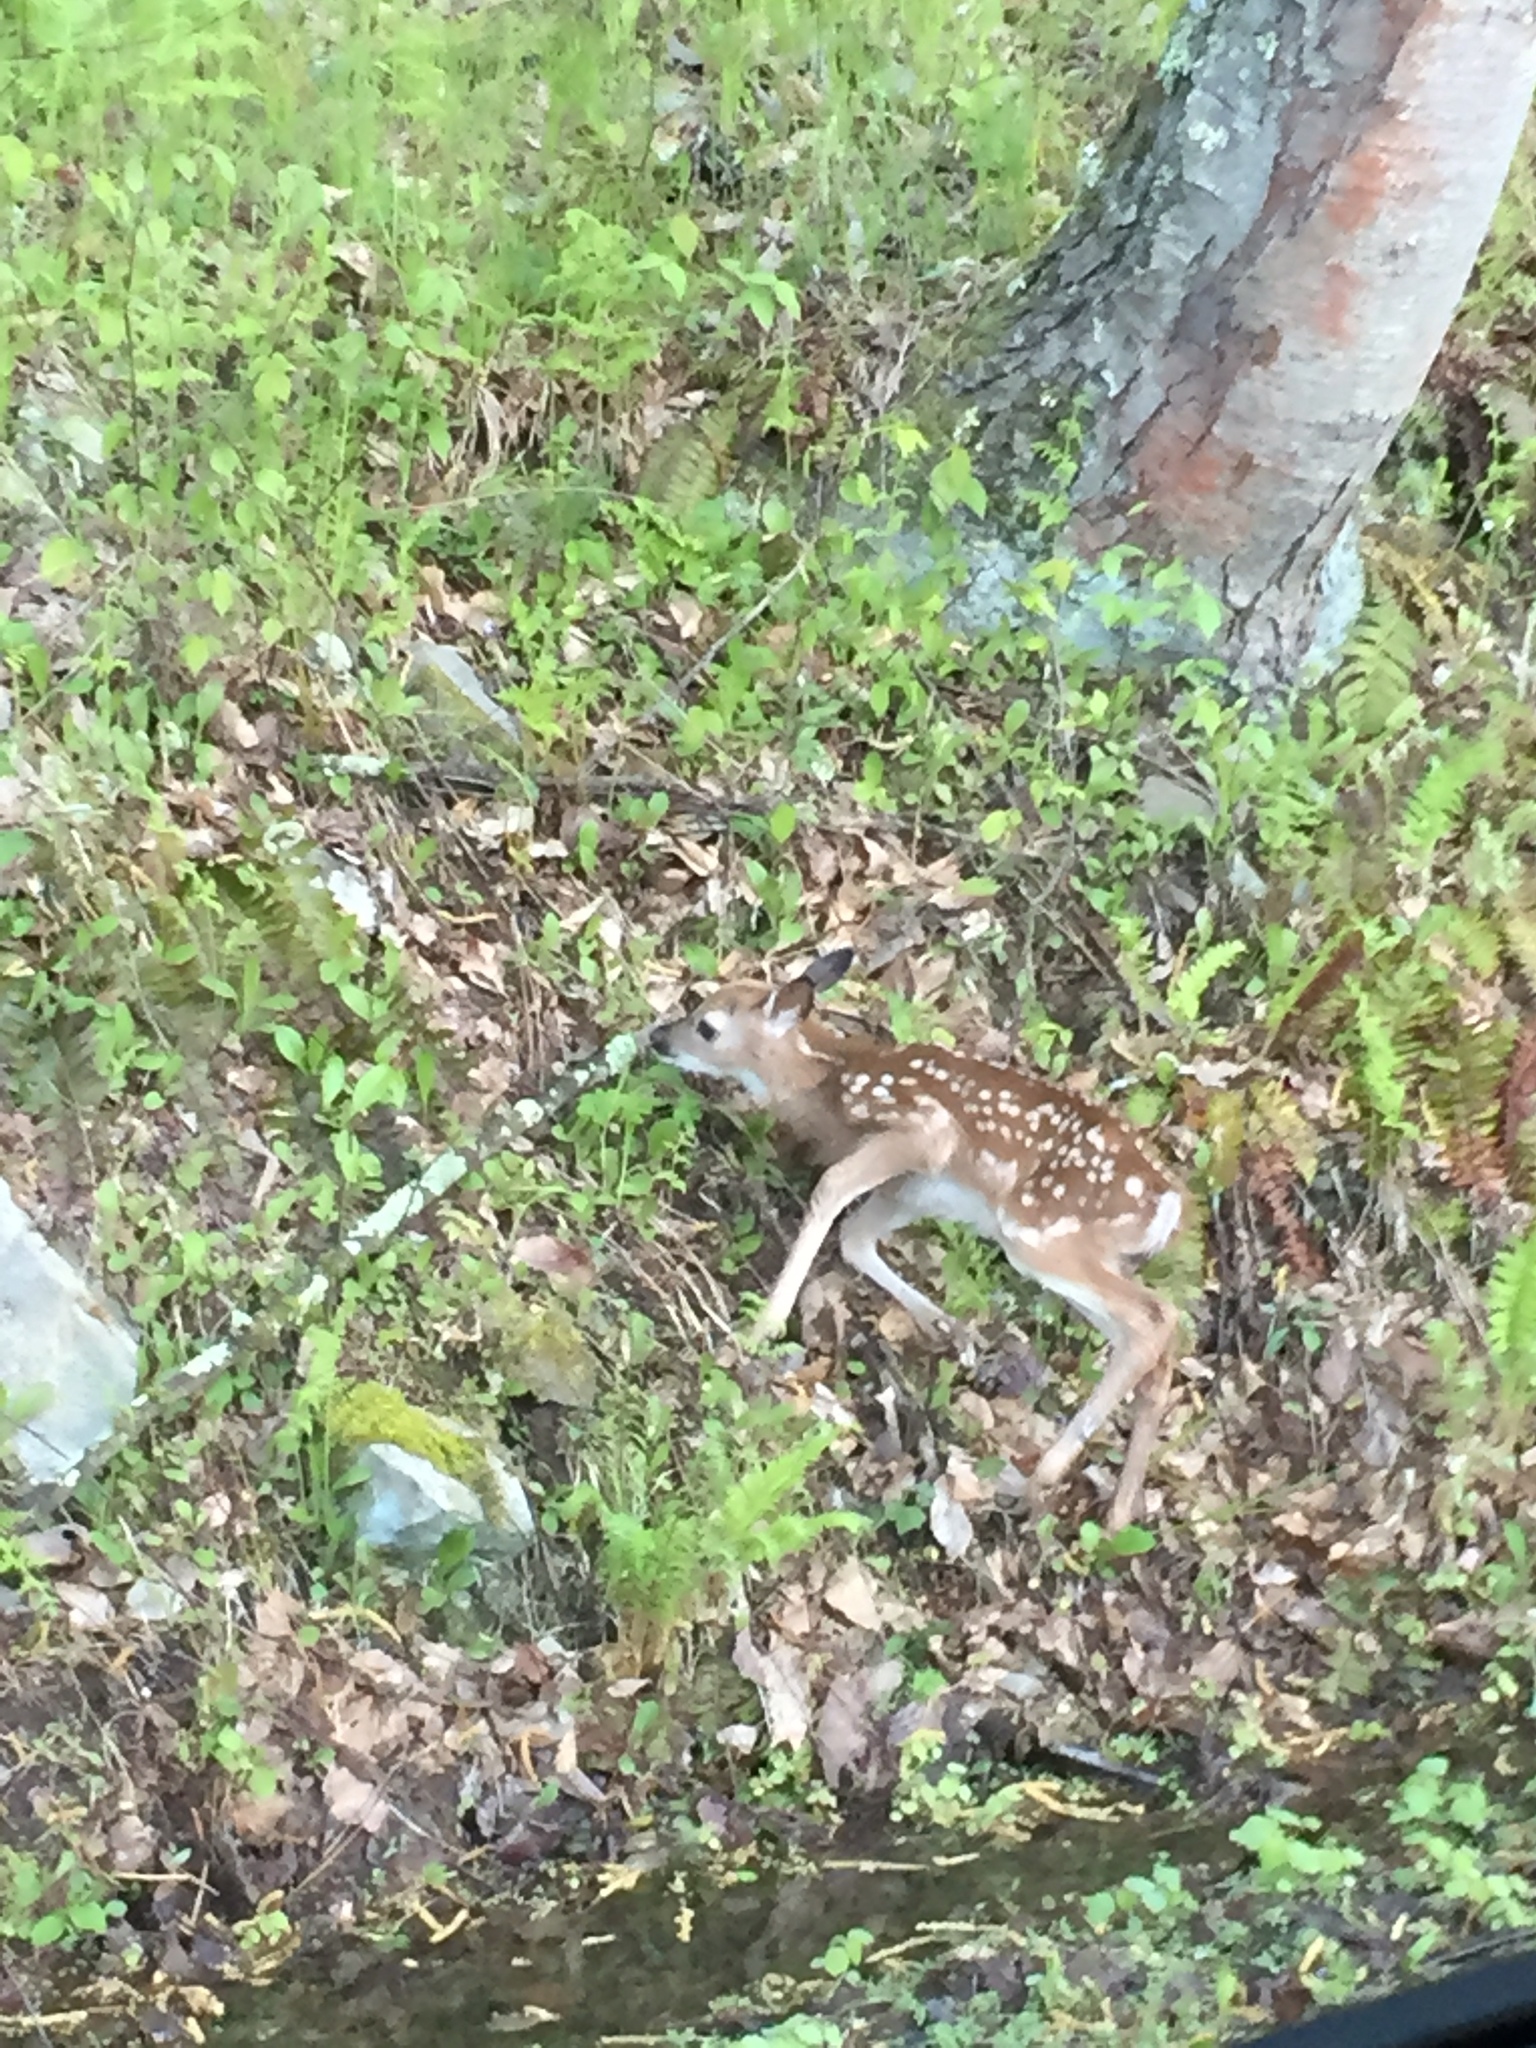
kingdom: Animalia
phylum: Chordata
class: Mammalia
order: Artiodactyla
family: Cervidae
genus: Odocoileus
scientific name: Odocoileus virginianus
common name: White-tailed deer
